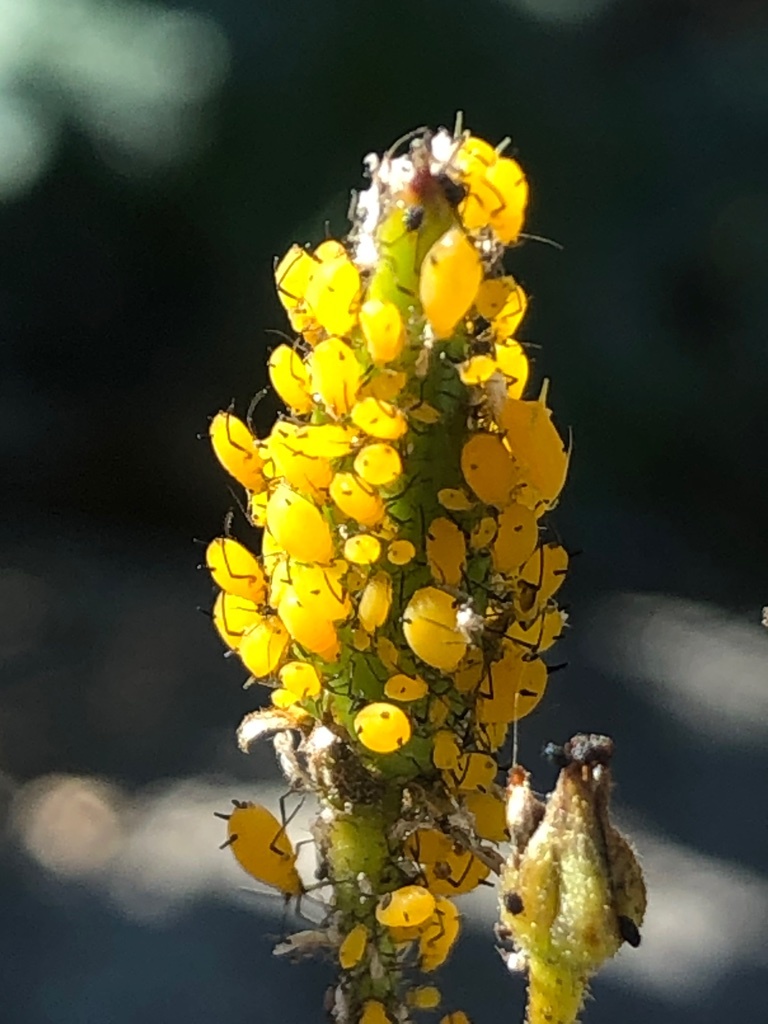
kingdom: Animalia
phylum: Arthropoda
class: Insecta
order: Hemiptera
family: Aphididae
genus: Aphis
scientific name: Aphis nerii
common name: Oleander aphid
